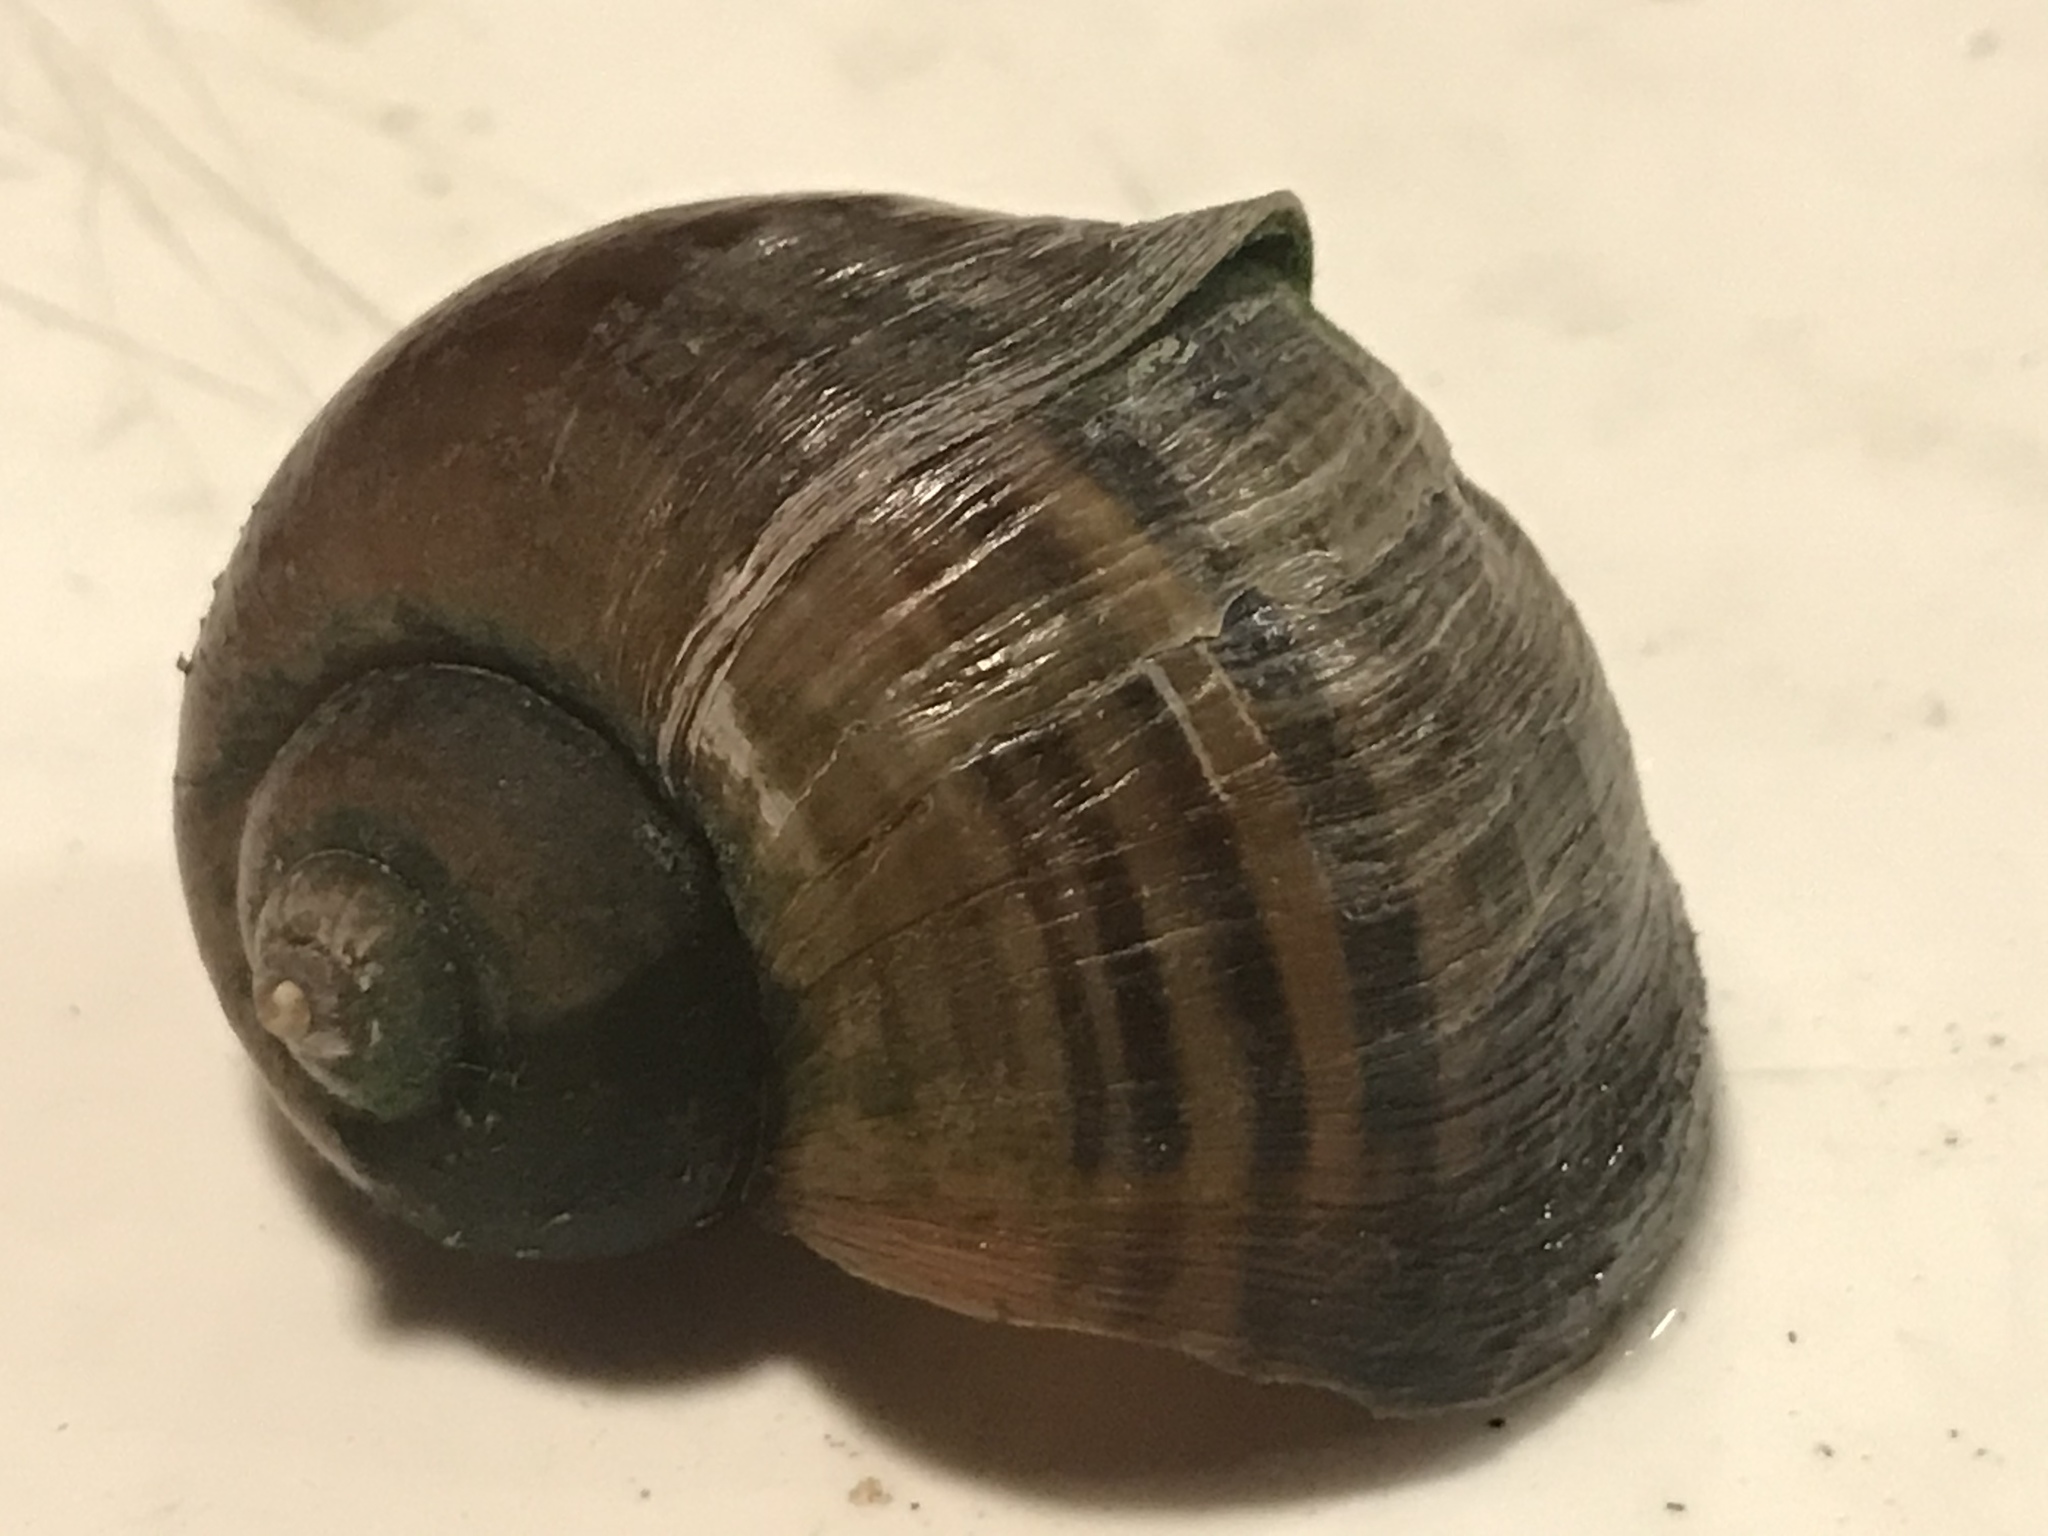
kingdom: Animalia
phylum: Mollusca
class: Gastropoda
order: Architaenioglossa
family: Ampullariidae
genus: Pomacea
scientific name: Pomacea canaliculata
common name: Channeled applesnail
